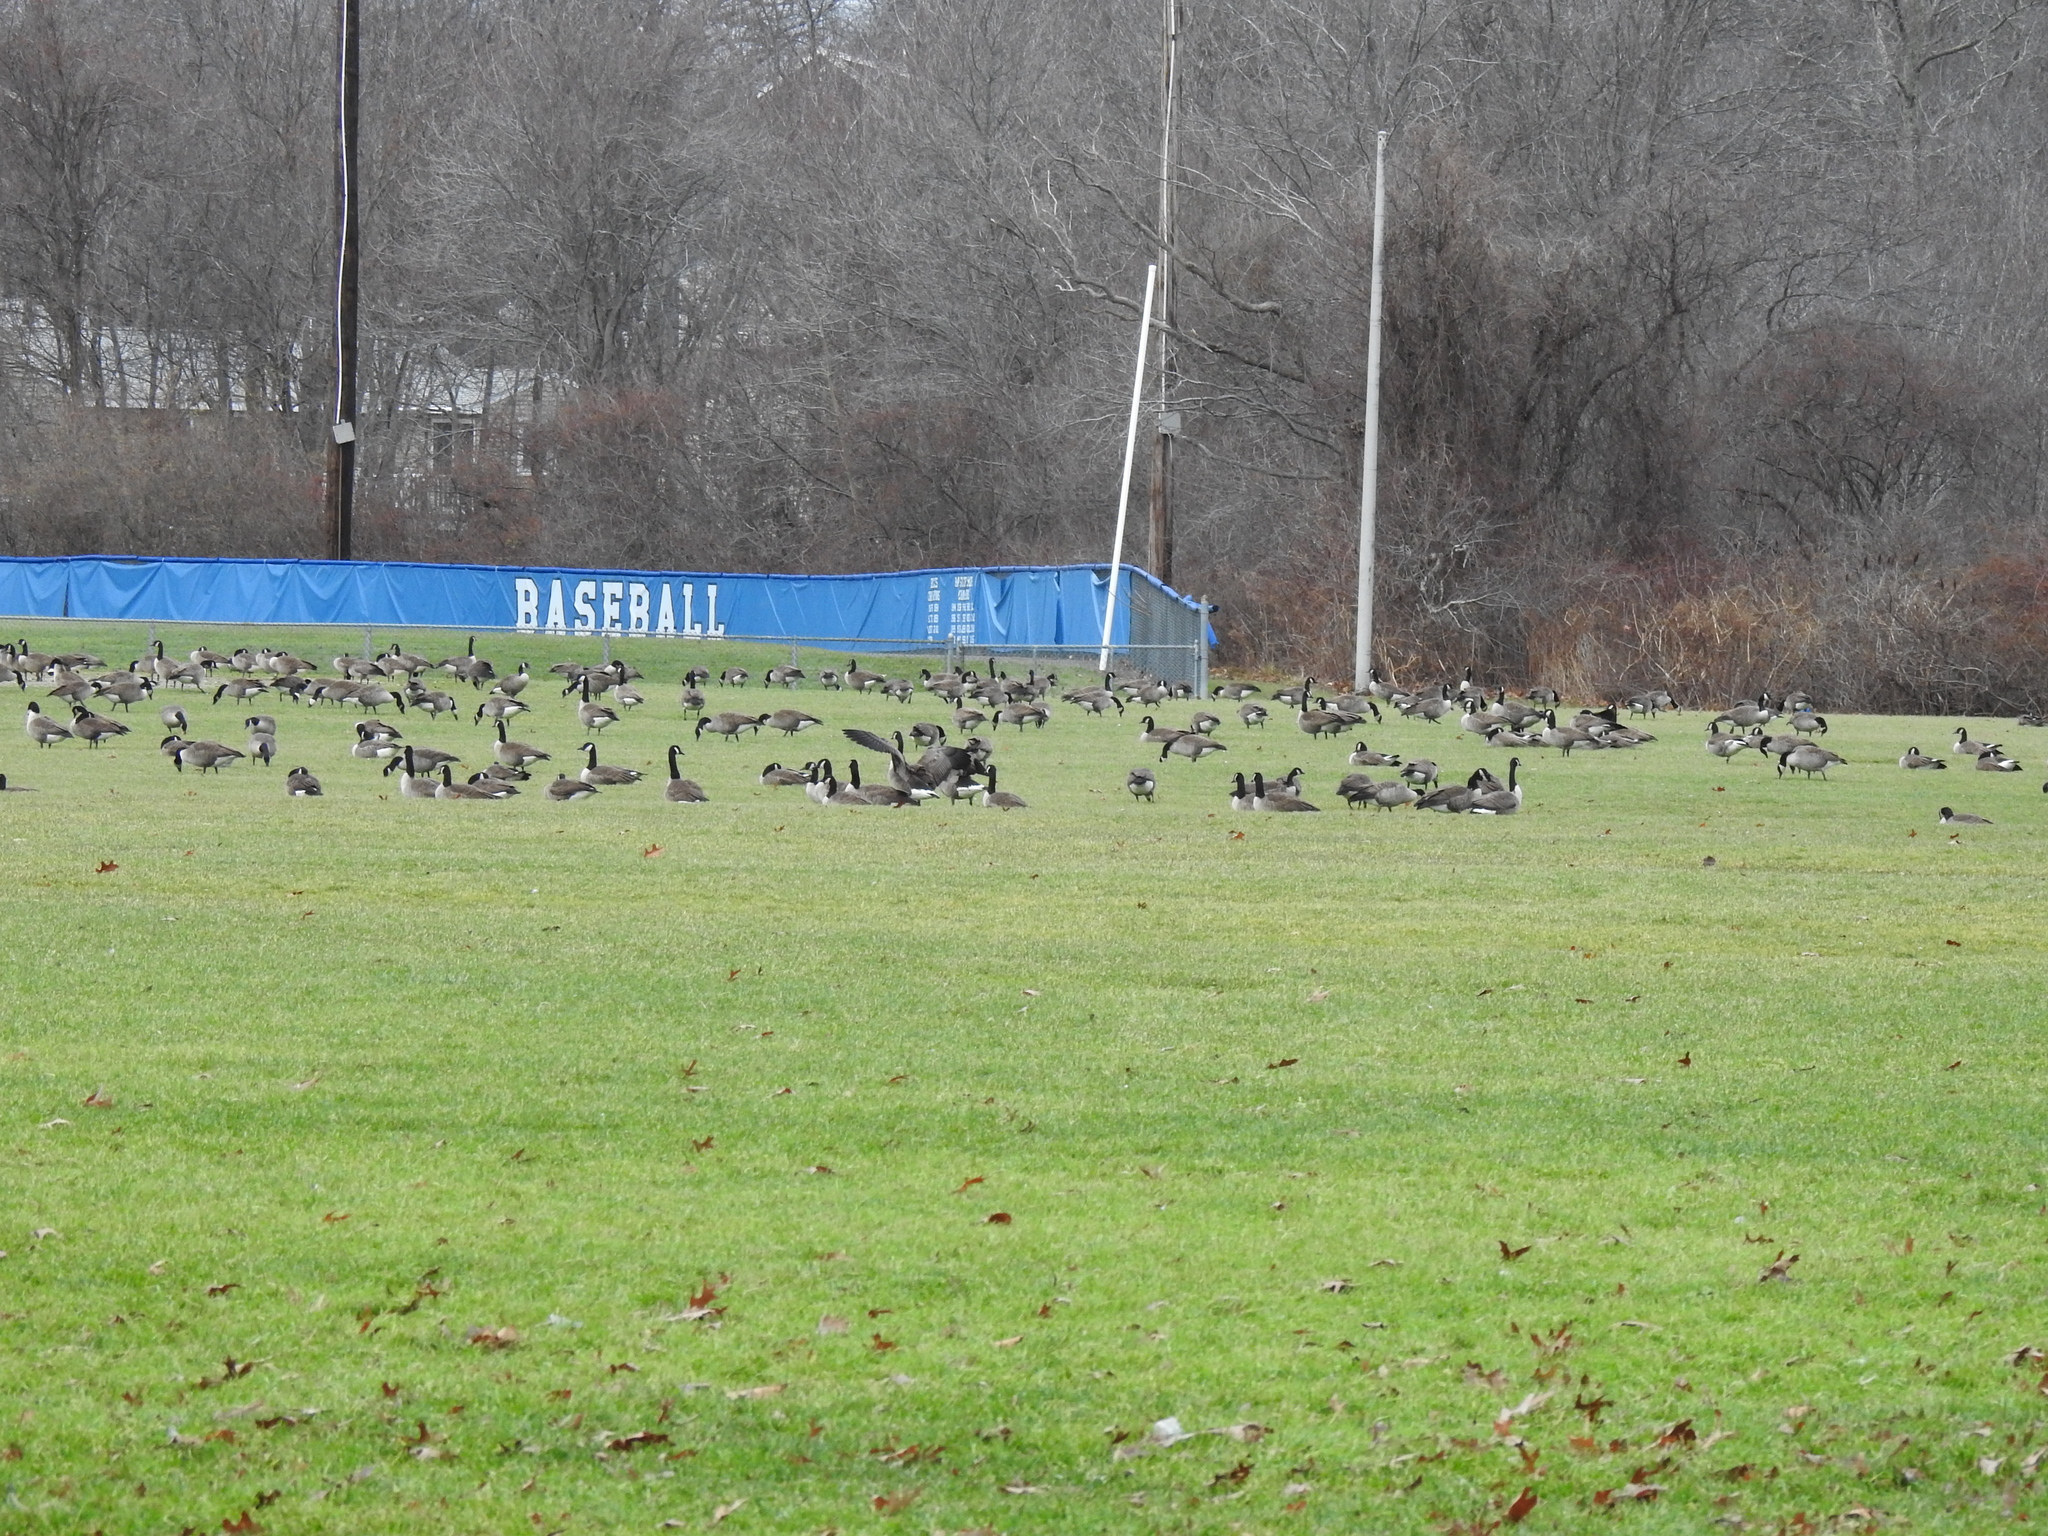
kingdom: Animalia
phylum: Chordata
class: Aves
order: Anseriformes
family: Anatidae
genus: Branta
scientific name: Branta canadensis
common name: Canada goose
